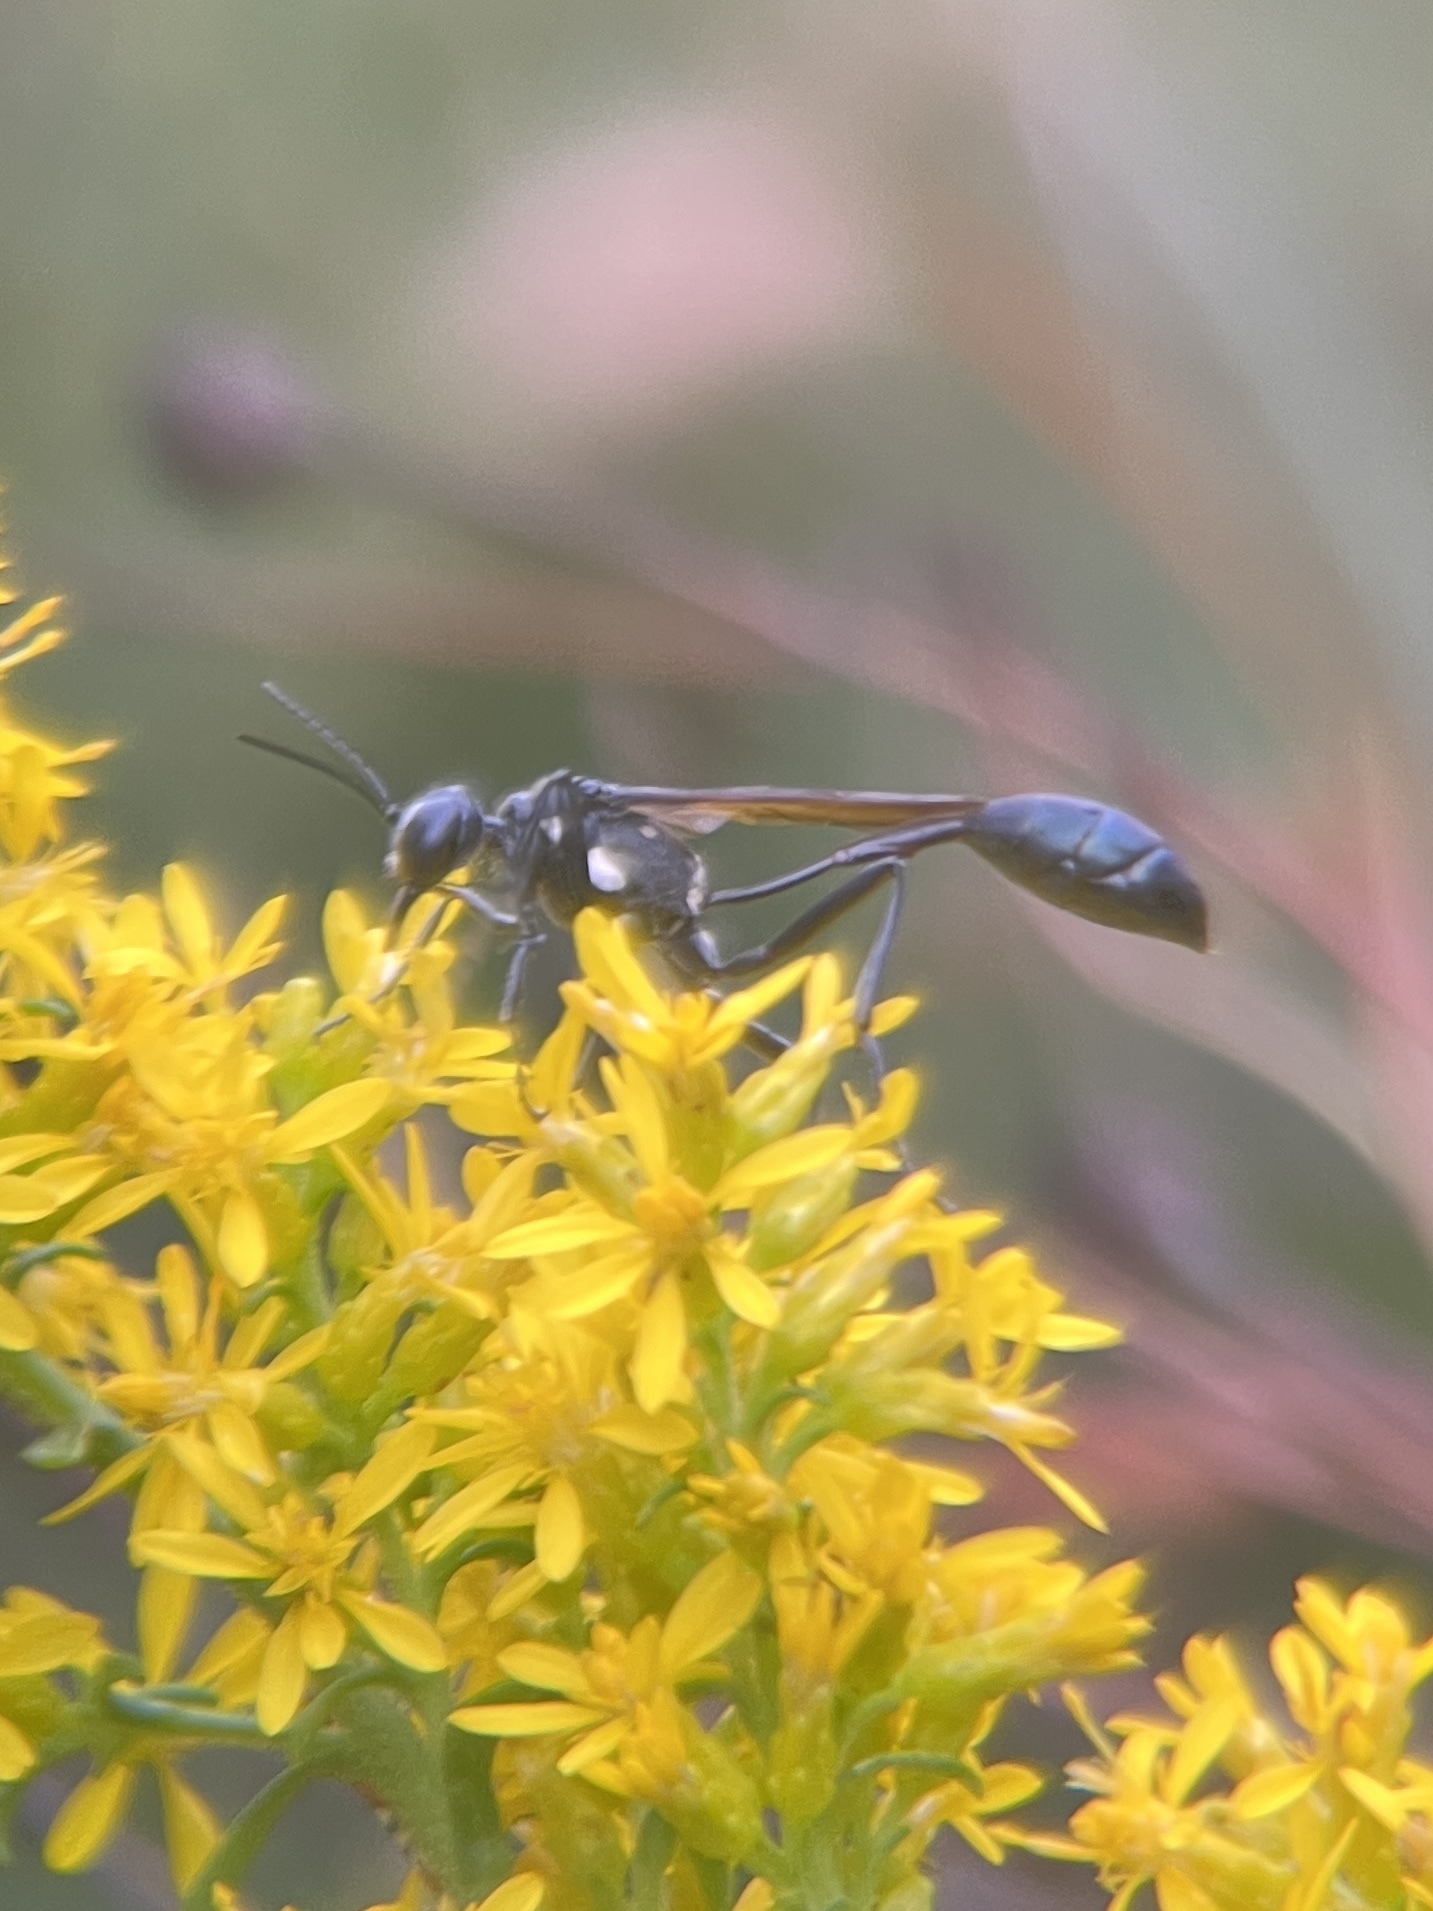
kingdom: Animalia
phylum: Arthropoda
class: Insecta
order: Hymenoptera
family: Sphecidae
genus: Eremnophila
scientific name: Eremnophila aureonotata
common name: Gold-marked thread-waisted wasp
